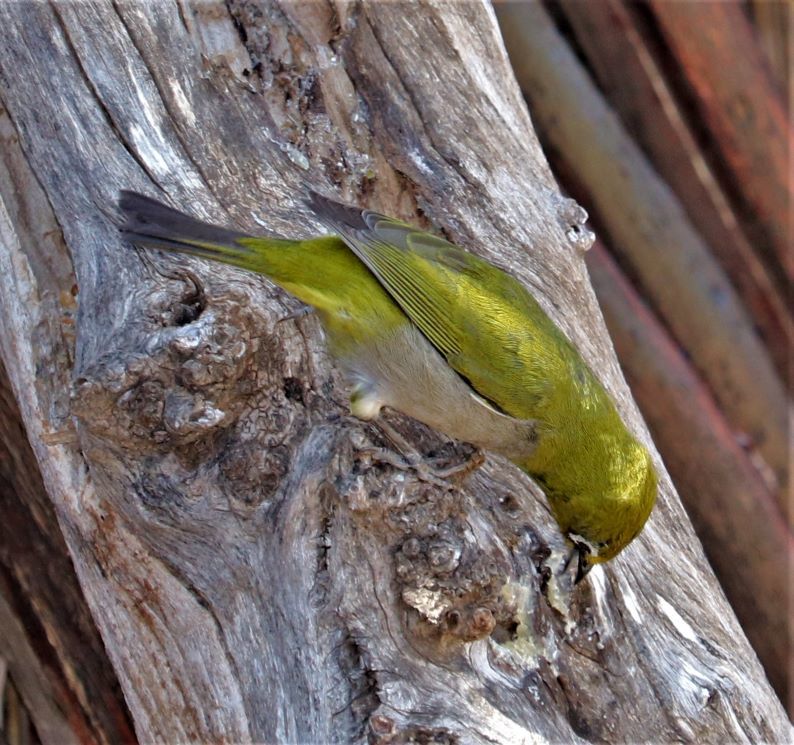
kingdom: Animalia
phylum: Chordata
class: Aves
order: Passeriformes
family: Zosteropidae
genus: Zosterops
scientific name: Zosterops virens
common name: Cape white-eye
